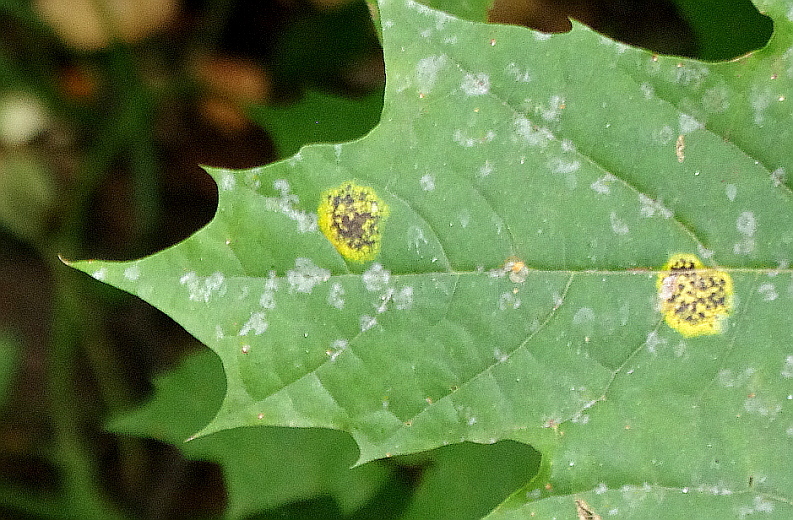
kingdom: Fungi
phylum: Ascomycota
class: Leotiomycetes
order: Rhytismatales
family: Rhytismataceae
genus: Rhytisma
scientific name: Rhytisma acerinum
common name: European tar spot
